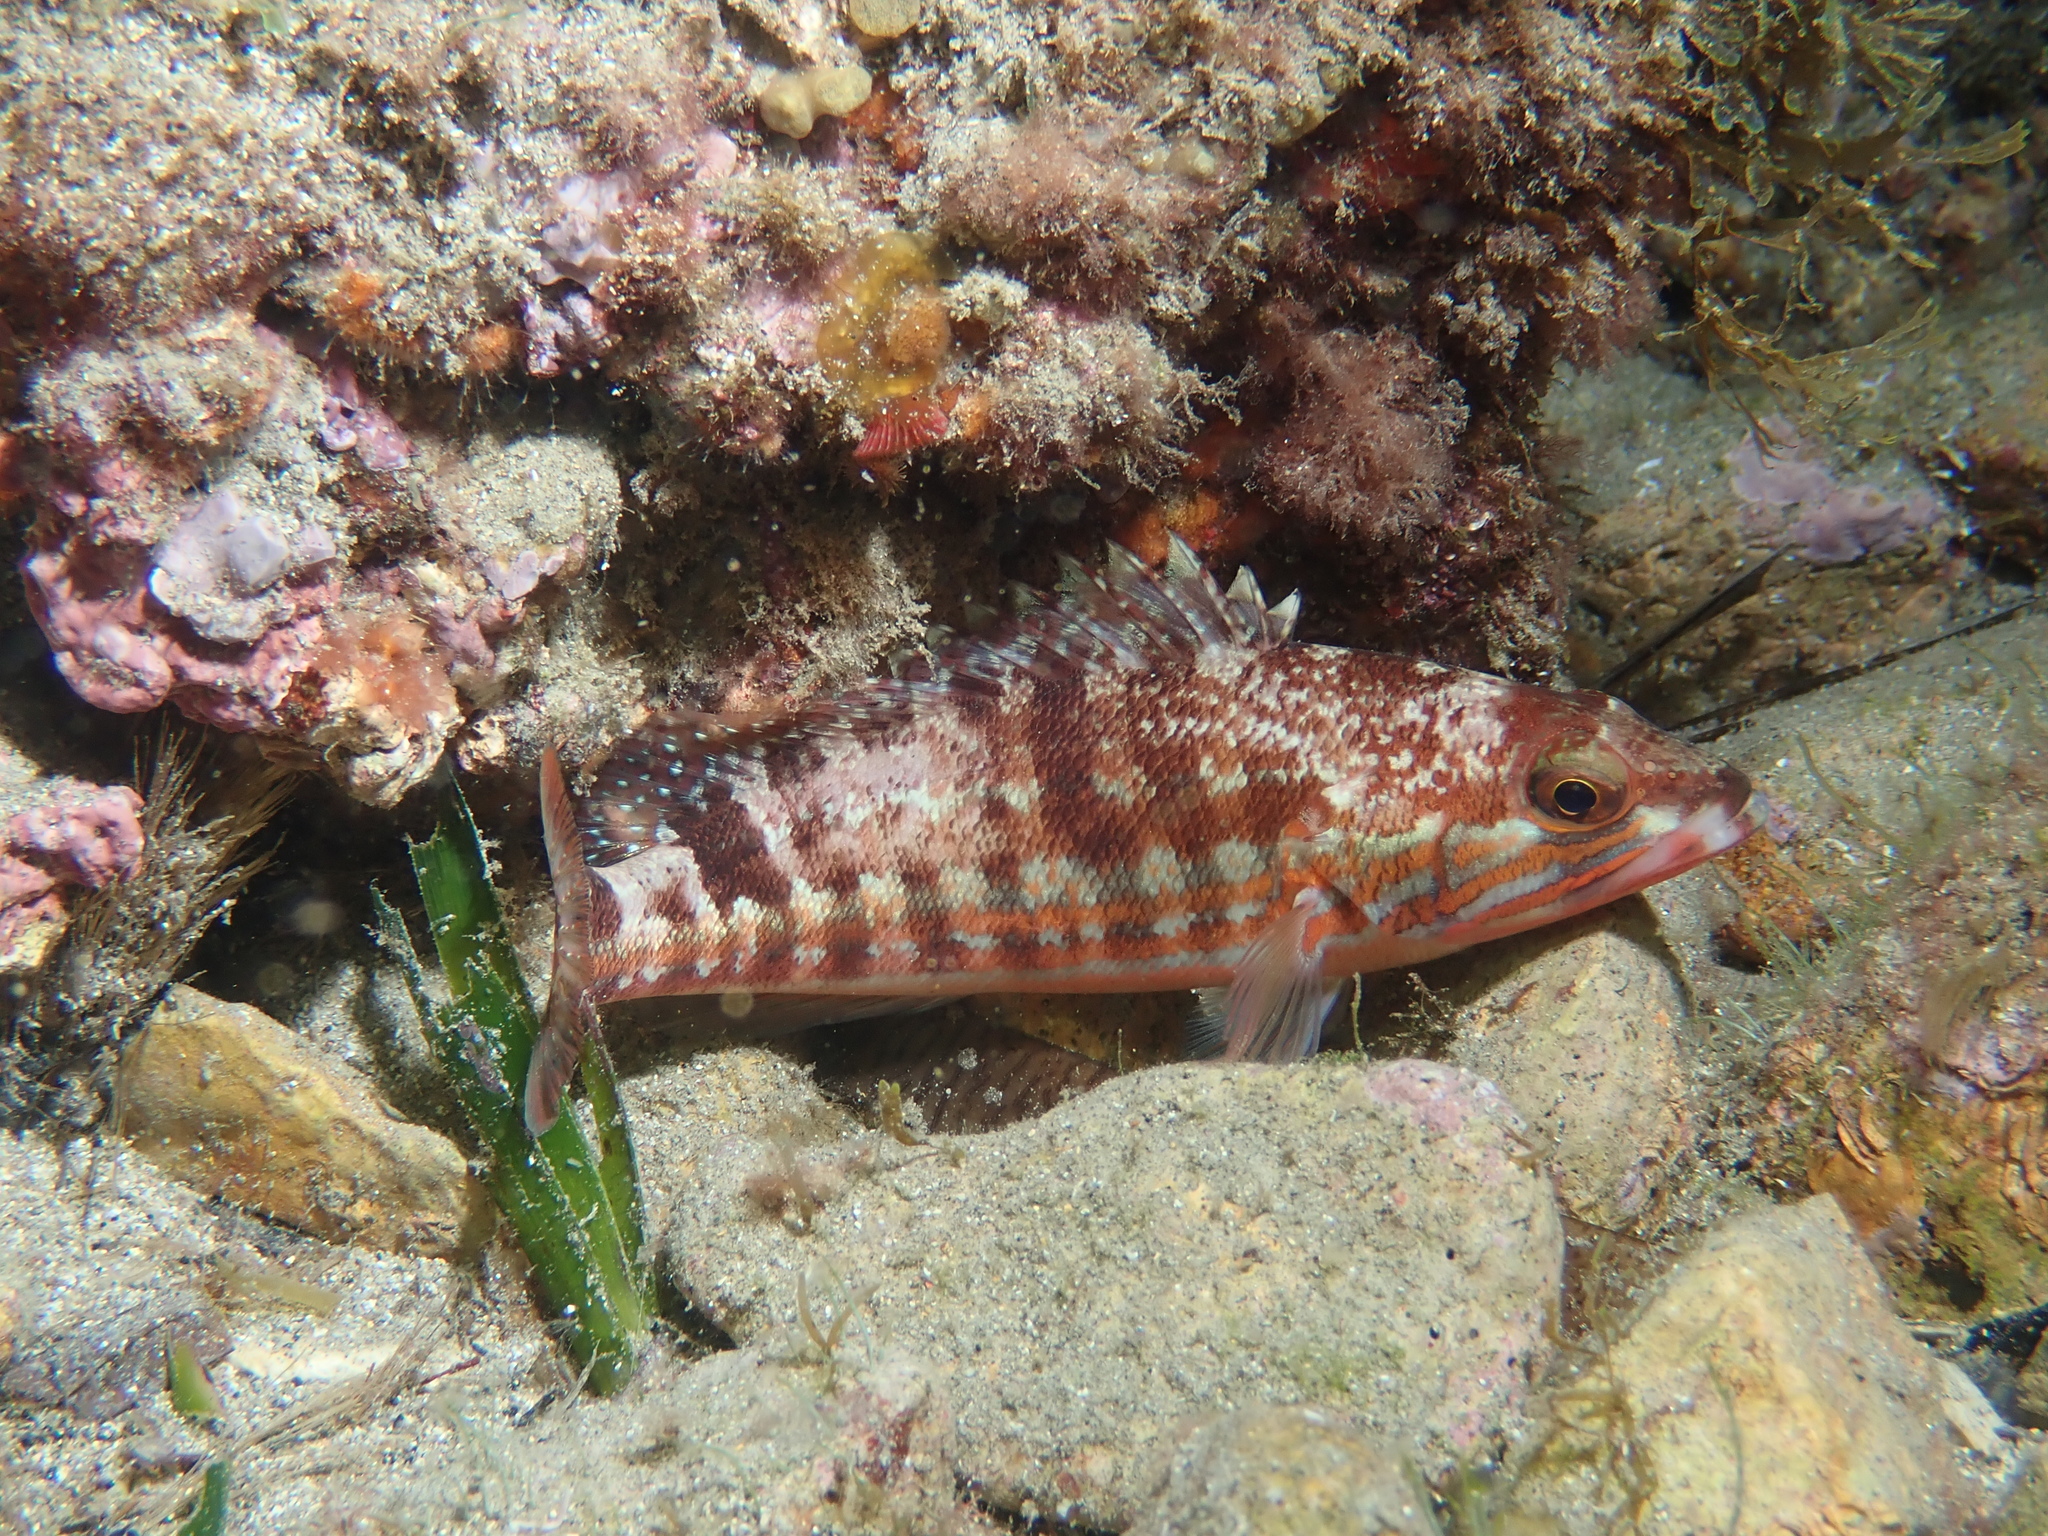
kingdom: Animalia
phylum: Chordata
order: Perciformes
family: Serranidae
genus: Serranus
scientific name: Serranus cabrilla
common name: Comber
